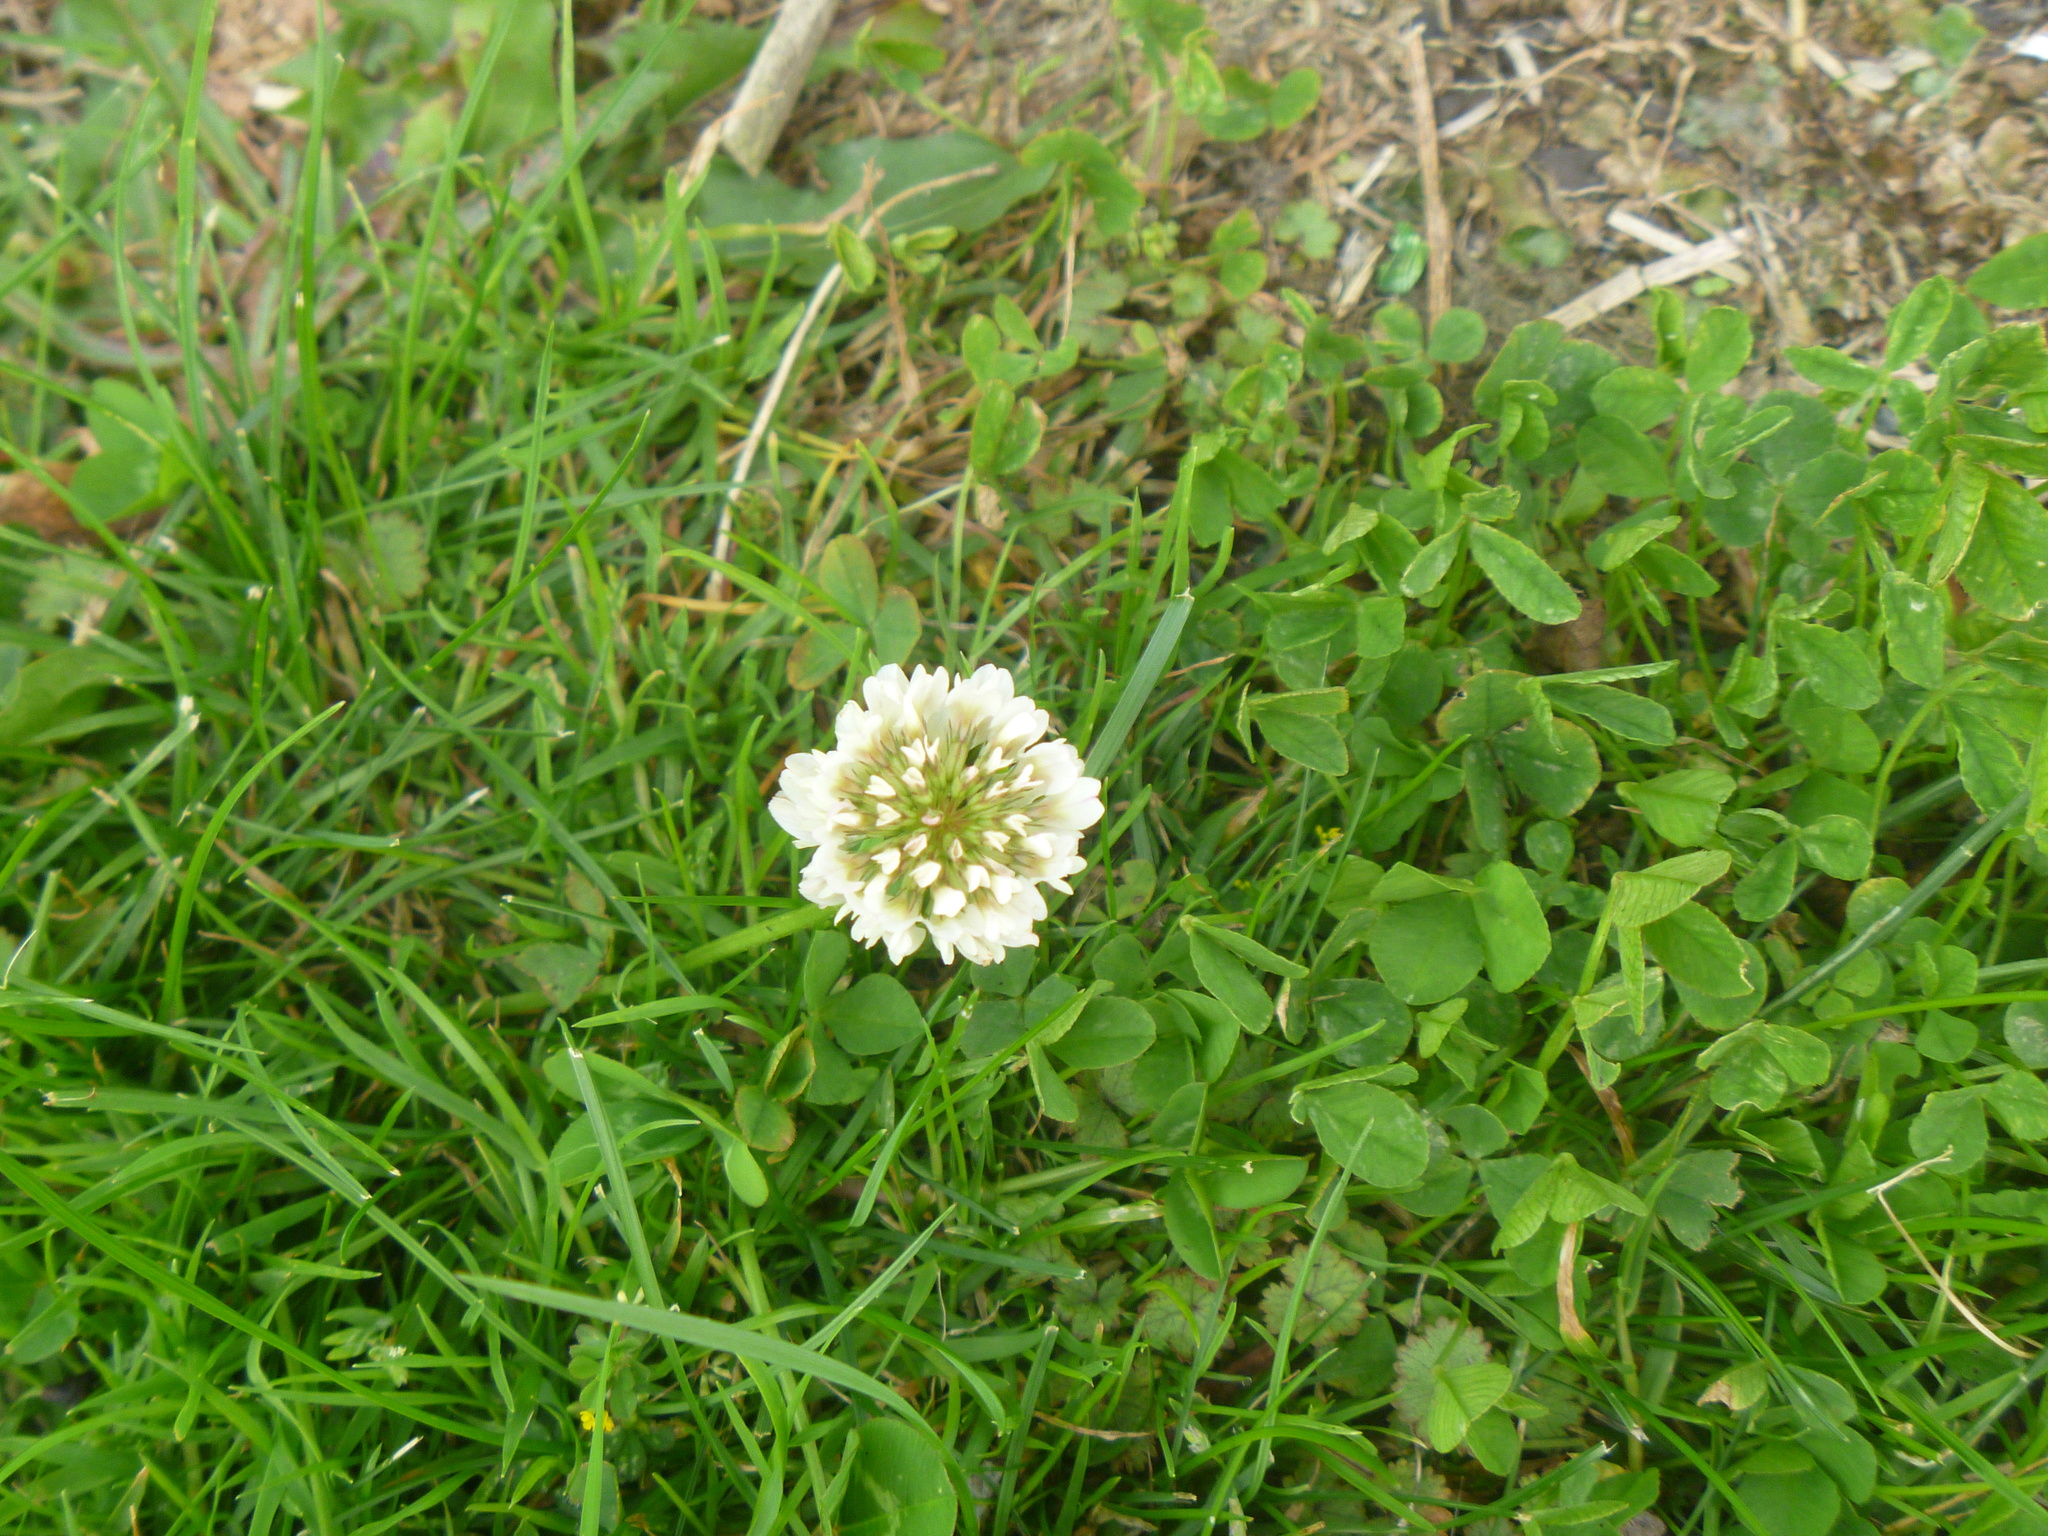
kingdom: Plantae
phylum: Tracheophyta
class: Magnoliopsida
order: Fabales
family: Fabaceae
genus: Trifolium
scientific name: Trifolium repens
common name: White clover
